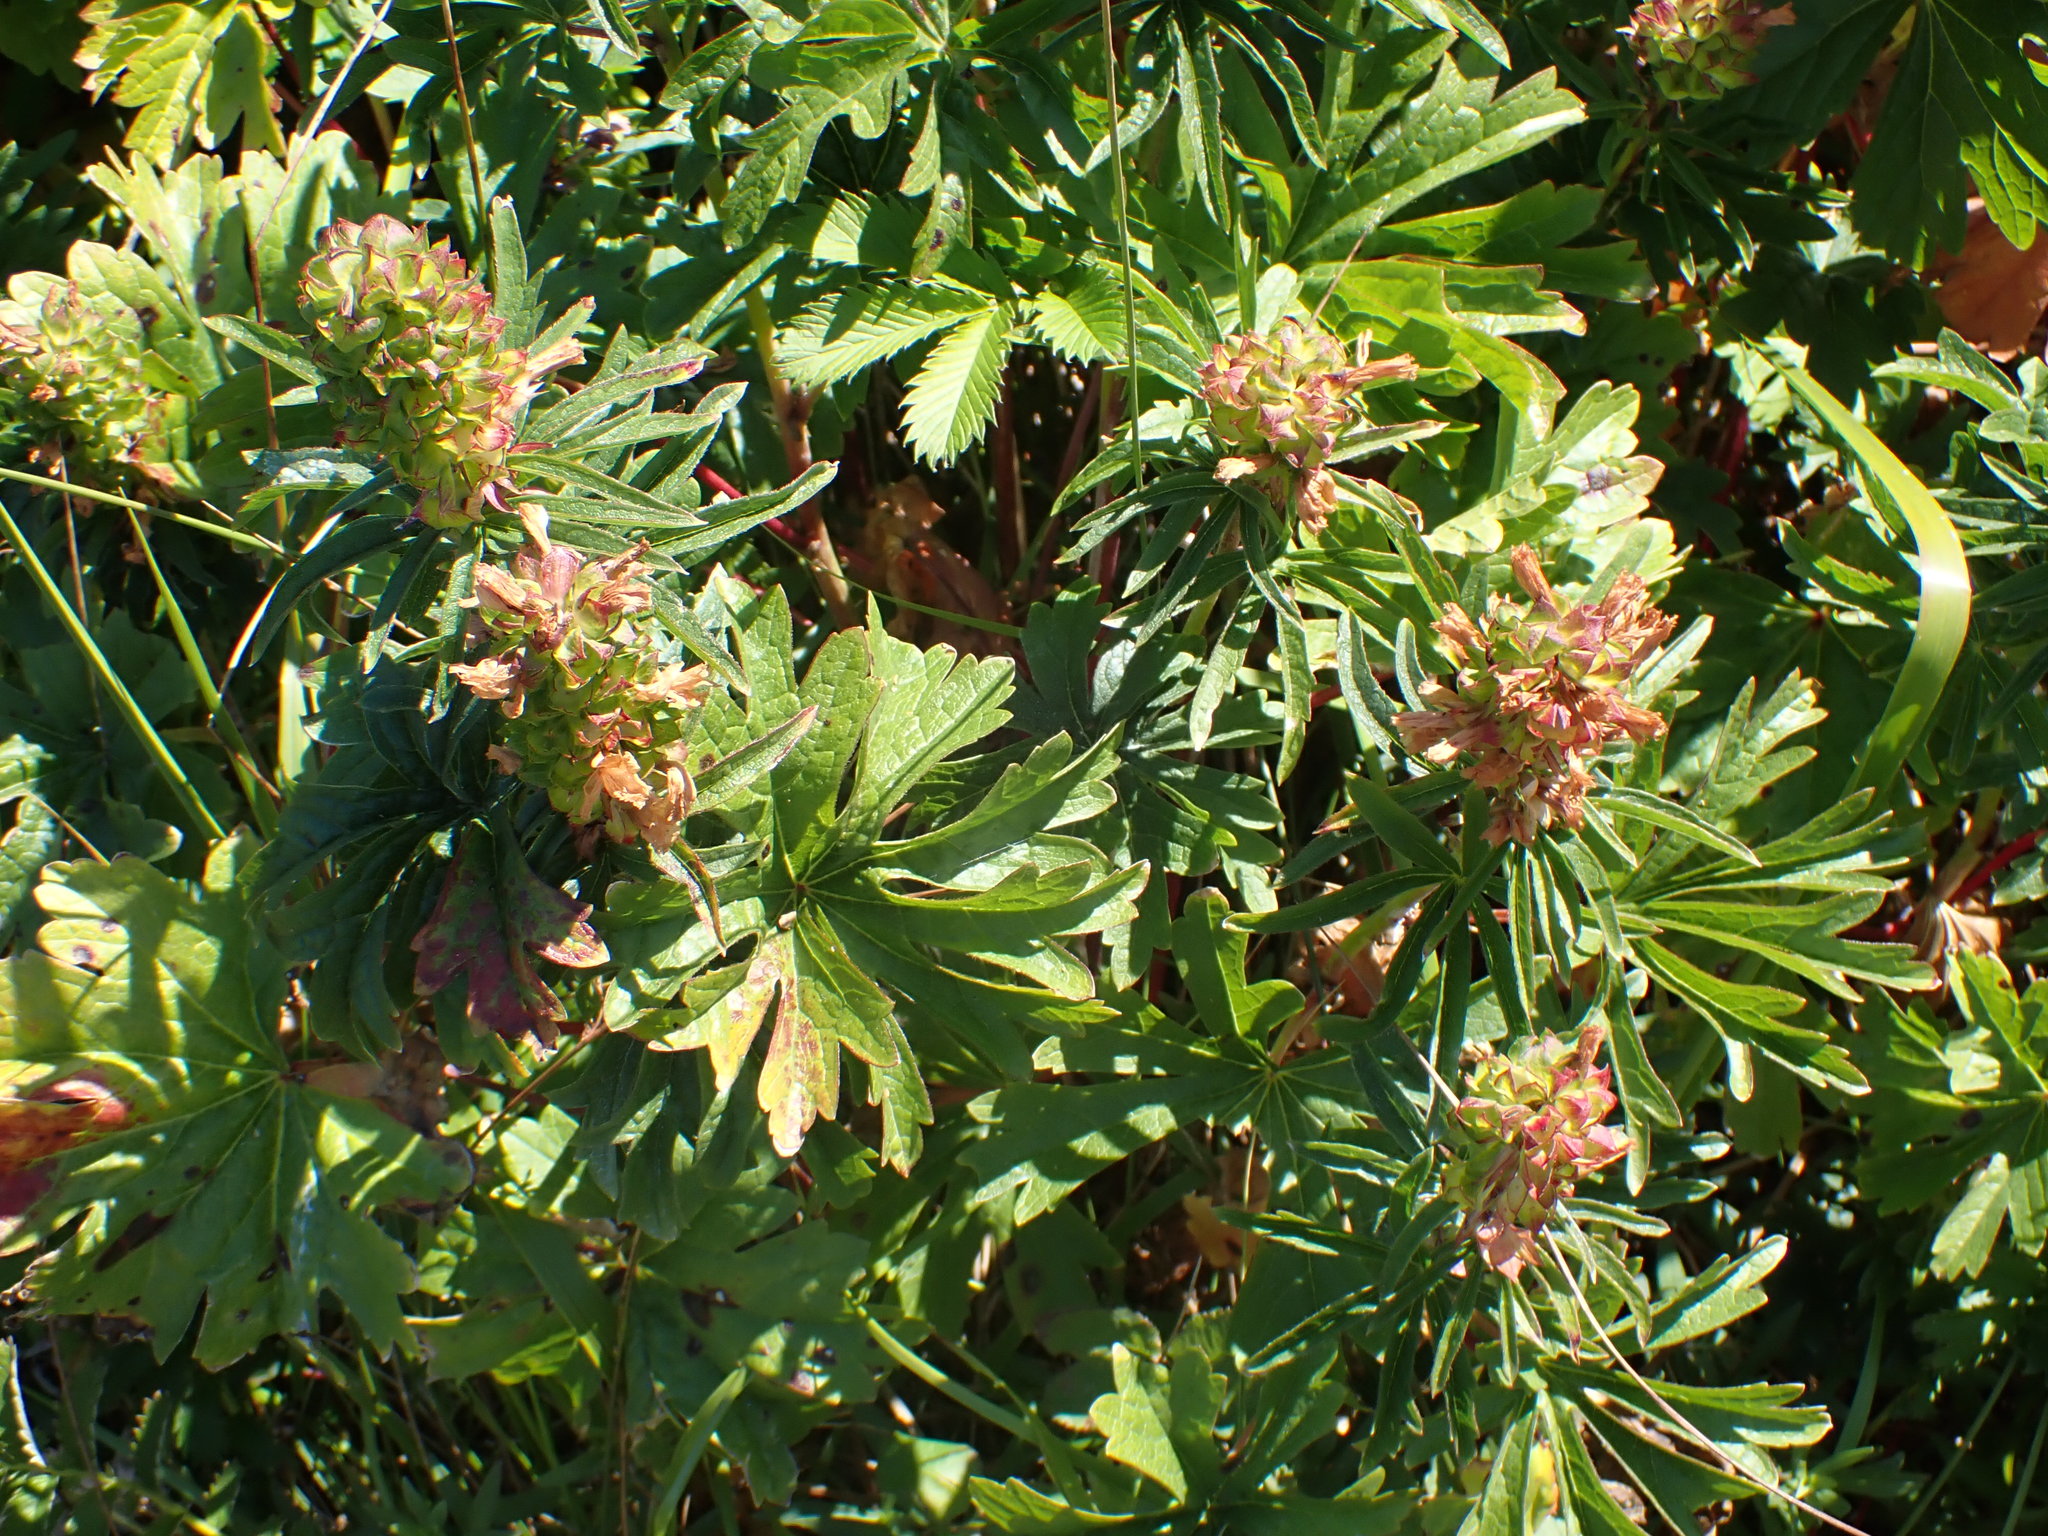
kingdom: Plantae
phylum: Tracheophyta
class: Magnoliopsida
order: Malvales
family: Malvaceae
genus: Sidalcea
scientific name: Sidalcea hendersonii
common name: Mallow
